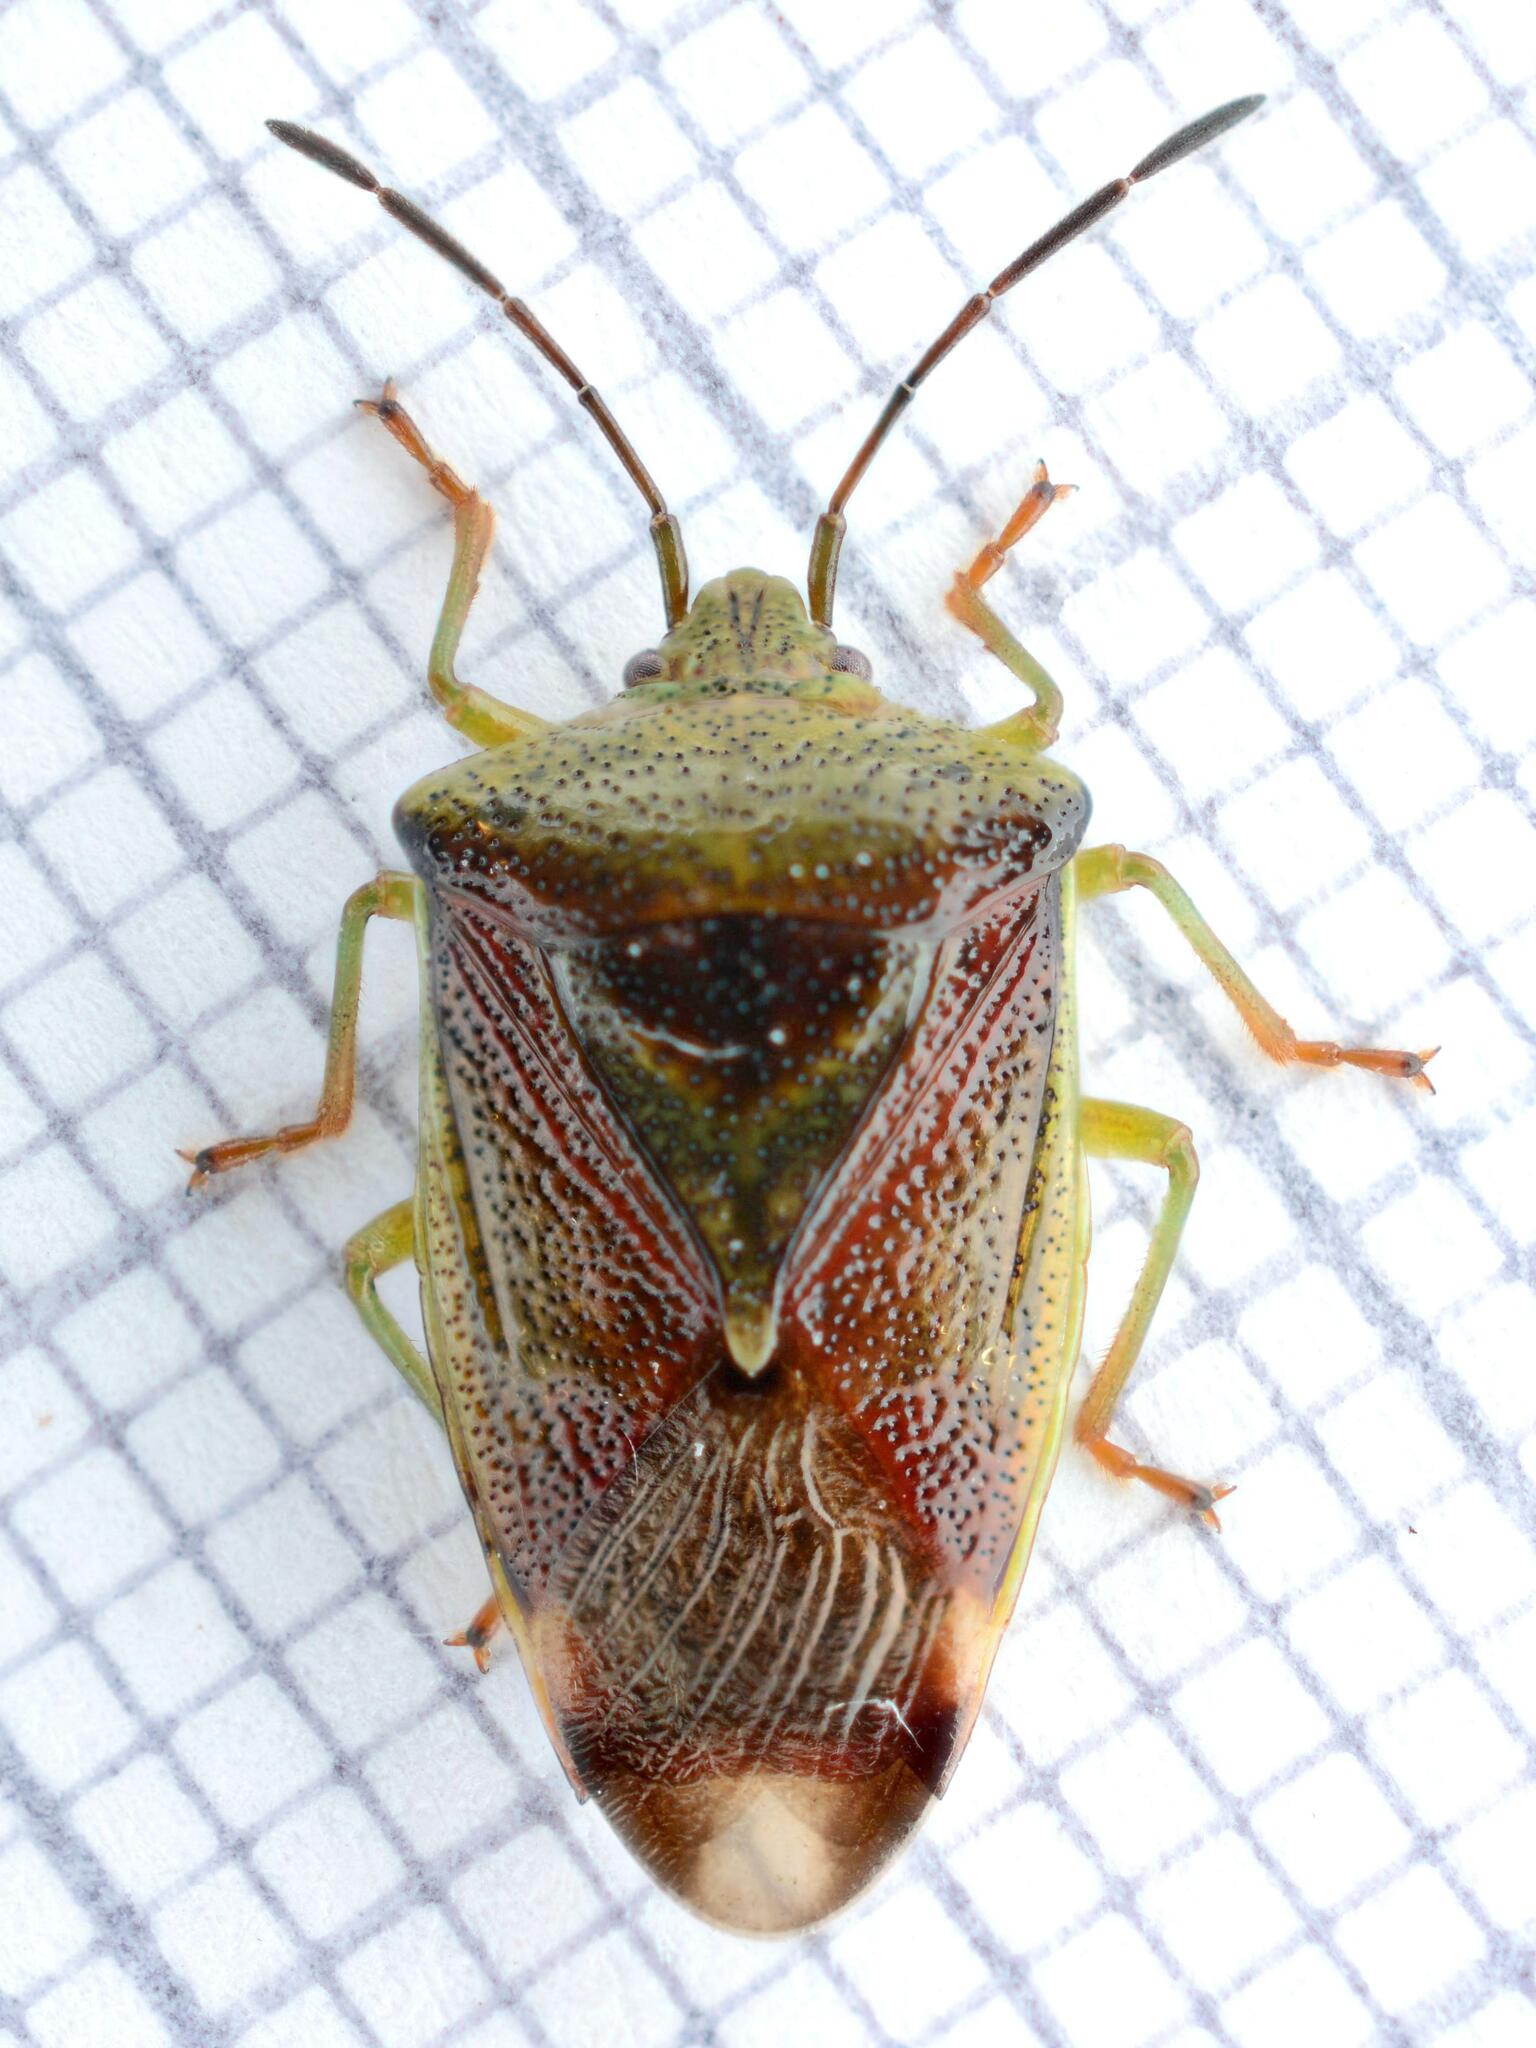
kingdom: Animalia
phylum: Arthropoda
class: Insecta
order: Hemiptera
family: Acanthosomatidae
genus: Elasmostethus
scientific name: Elasmostethus interstinctus
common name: Birch shieldbug
